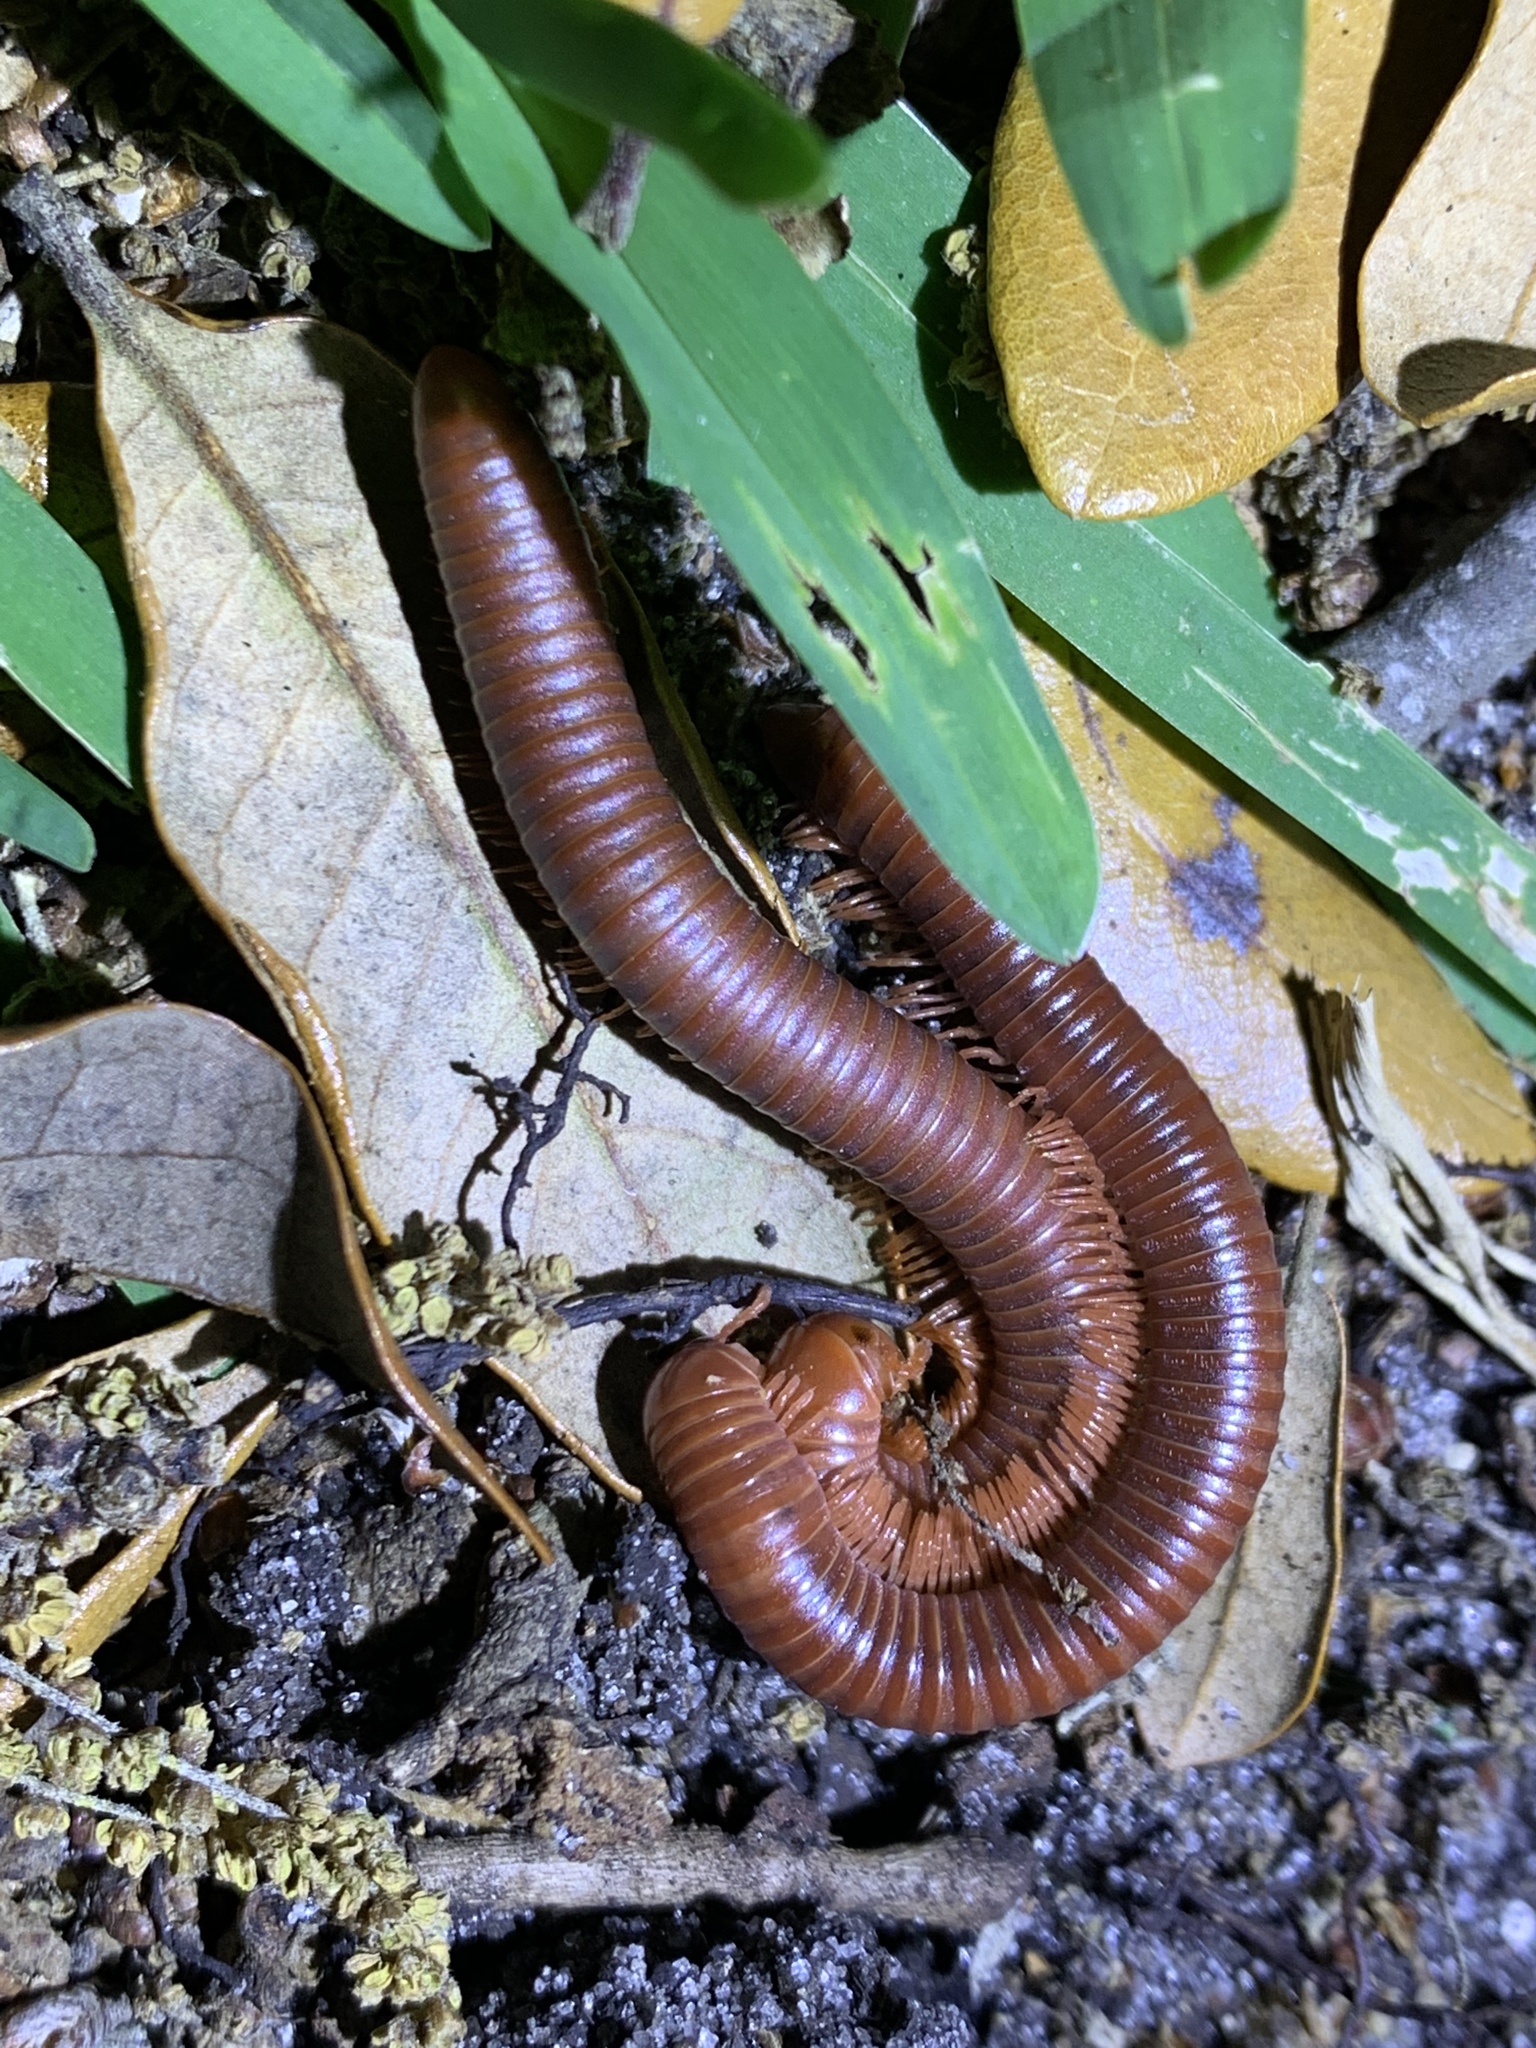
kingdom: Animalia
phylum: Arthropoda
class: Diplopoda
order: Spirobolida
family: Pachybolidae
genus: Trigoniulus
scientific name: Trigoniulus corallinus
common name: Millipede
